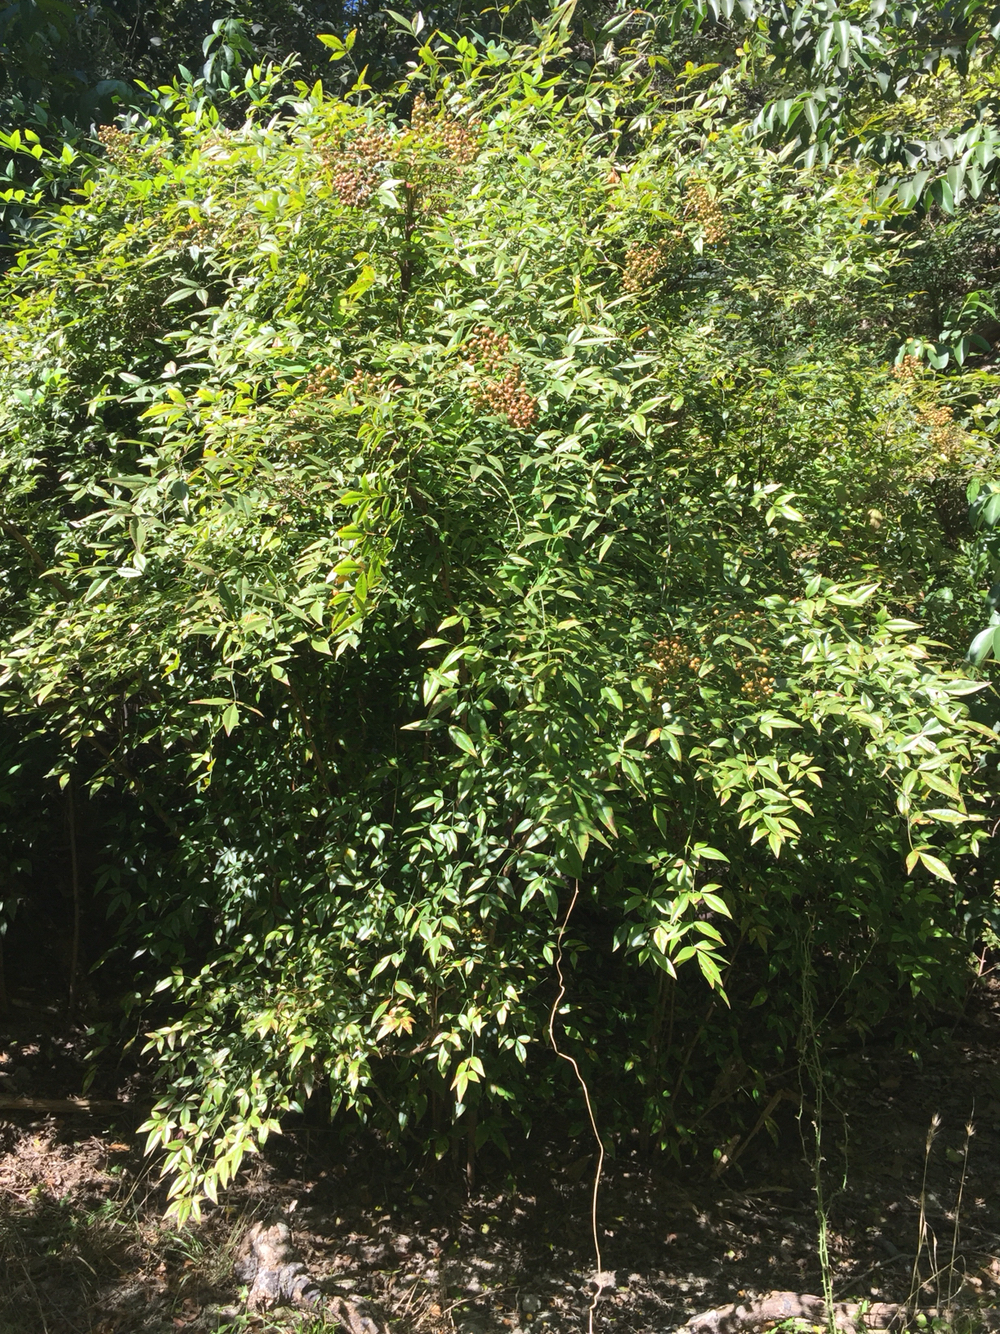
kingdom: Plantae
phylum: Tracheophyta
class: Magnoliopsida
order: Ranunculales
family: Berberidaceae
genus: Nandina
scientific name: Nandina domestica
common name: Sacred bamboo
